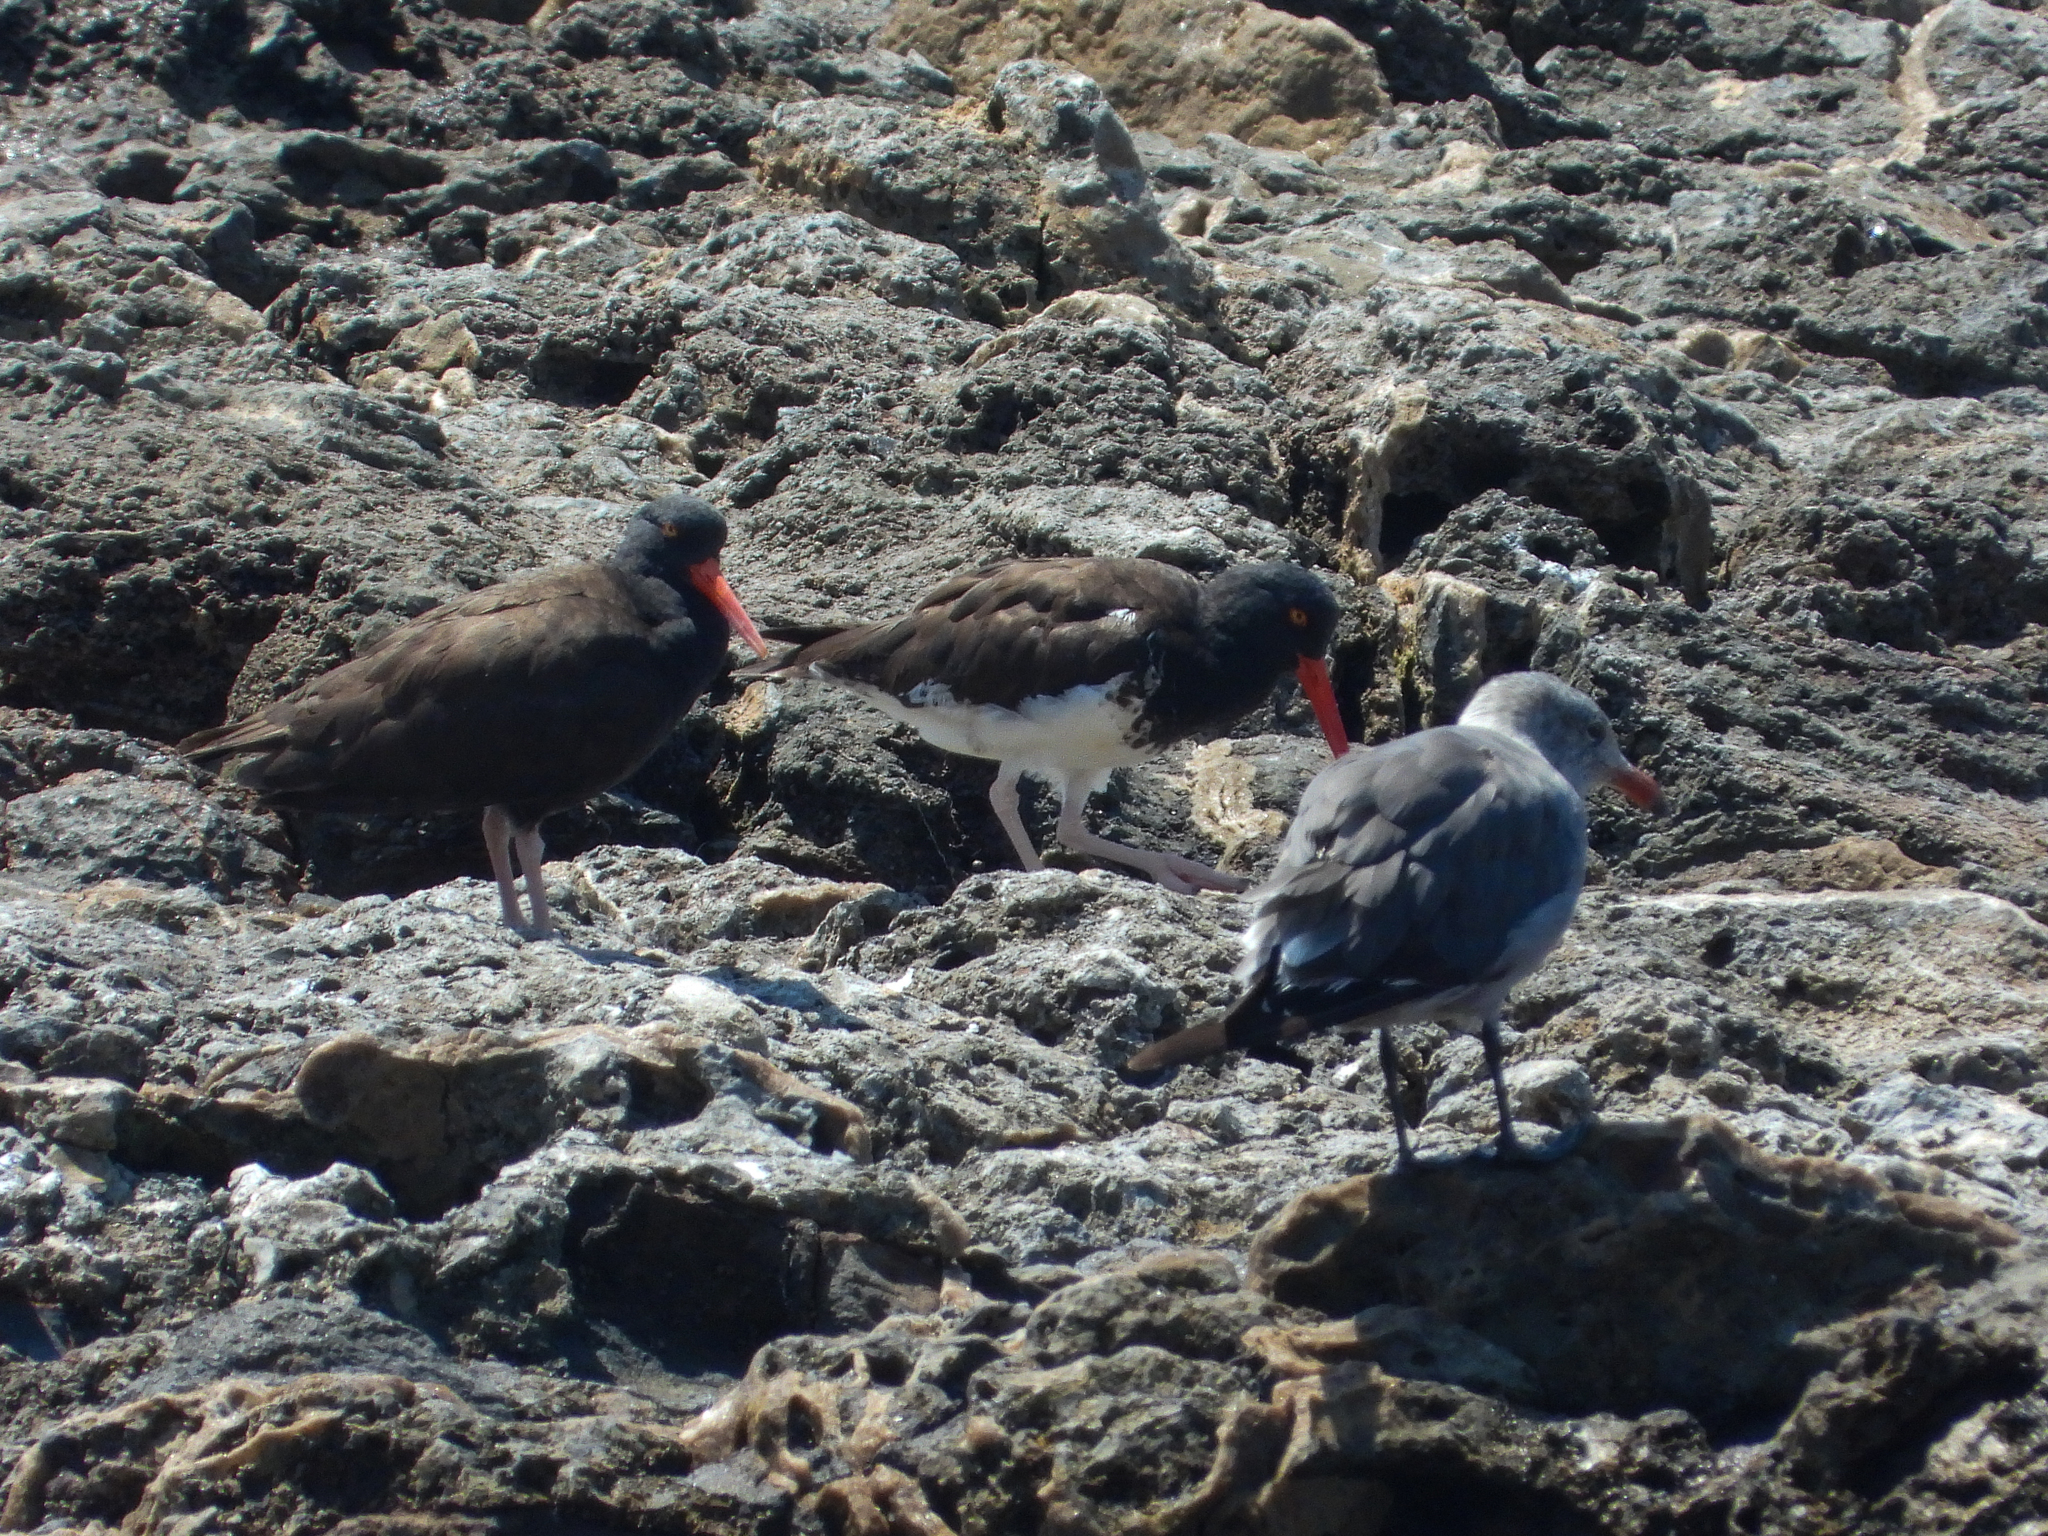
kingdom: Animalia
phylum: Chordata
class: Aves
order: Charadriiformes
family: Laridae
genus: Larus
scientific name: Larus heermanni
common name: Heermann's gull
